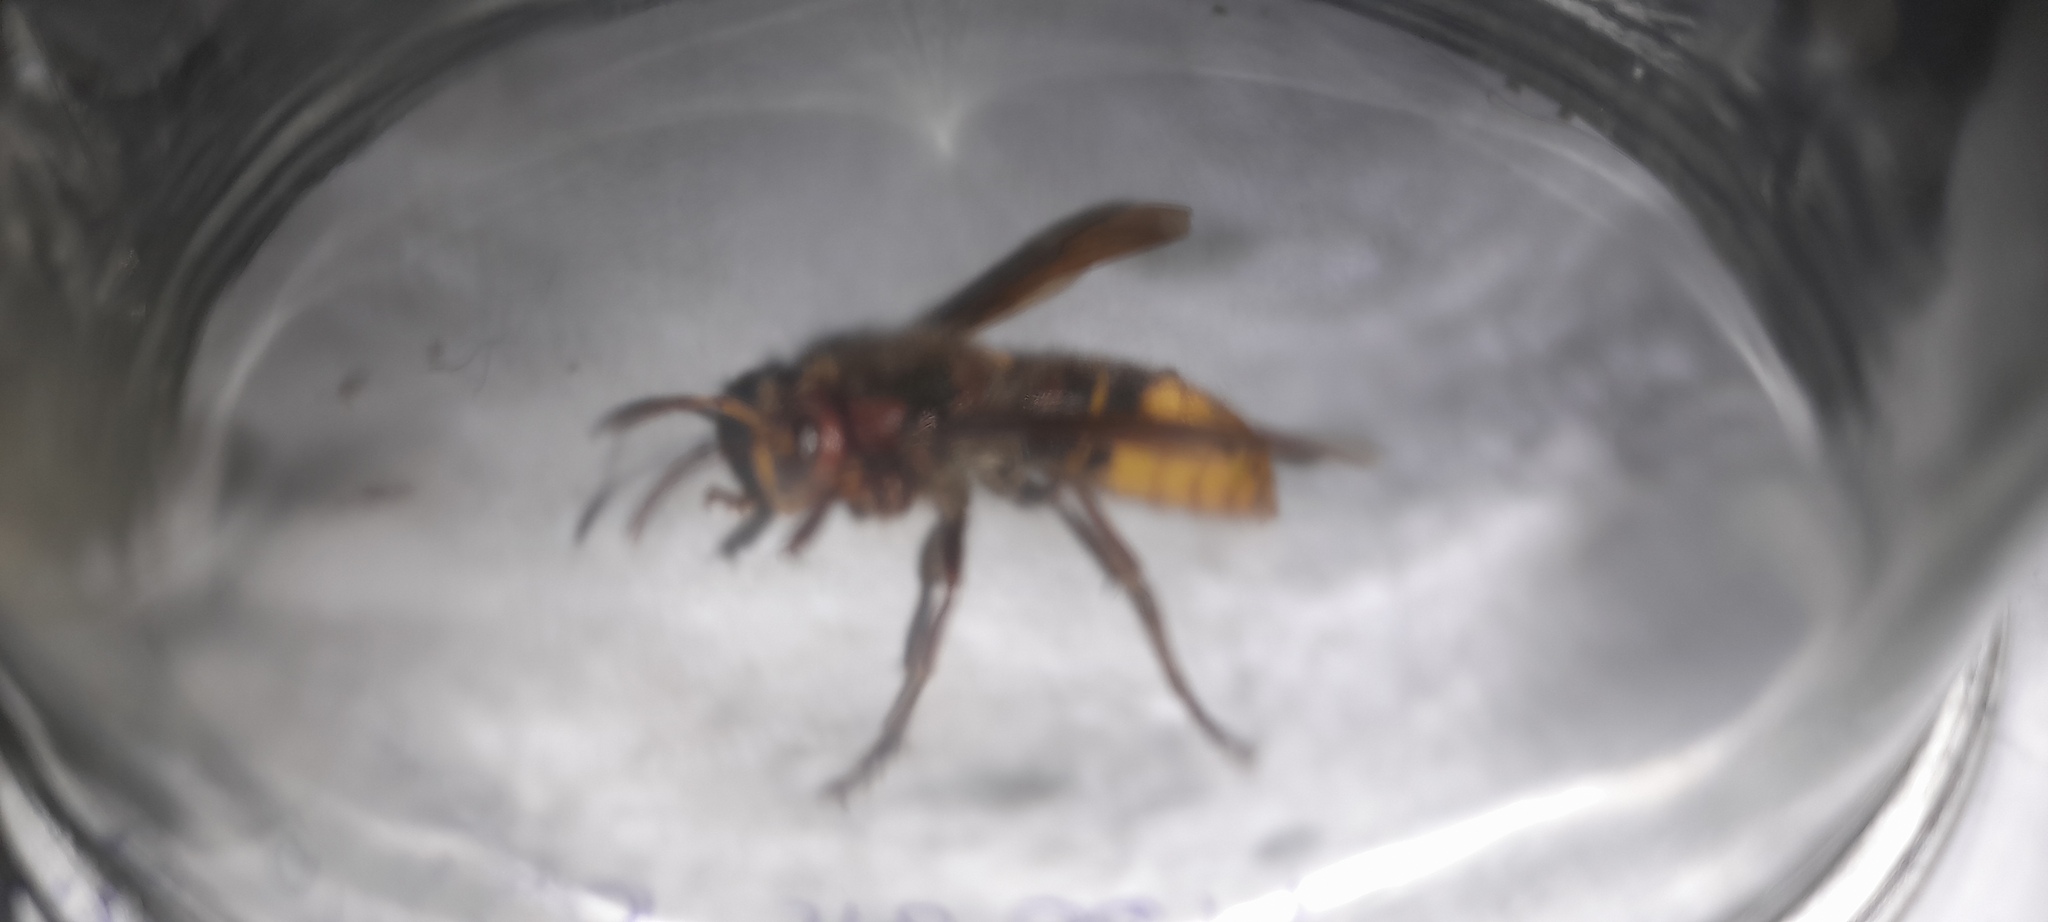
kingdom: Animalia
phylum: Arthropoda
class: Insecta
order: Hymenoptera
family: Vespidae
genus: Vespa
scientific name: Vespa crabro
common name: Hornet
